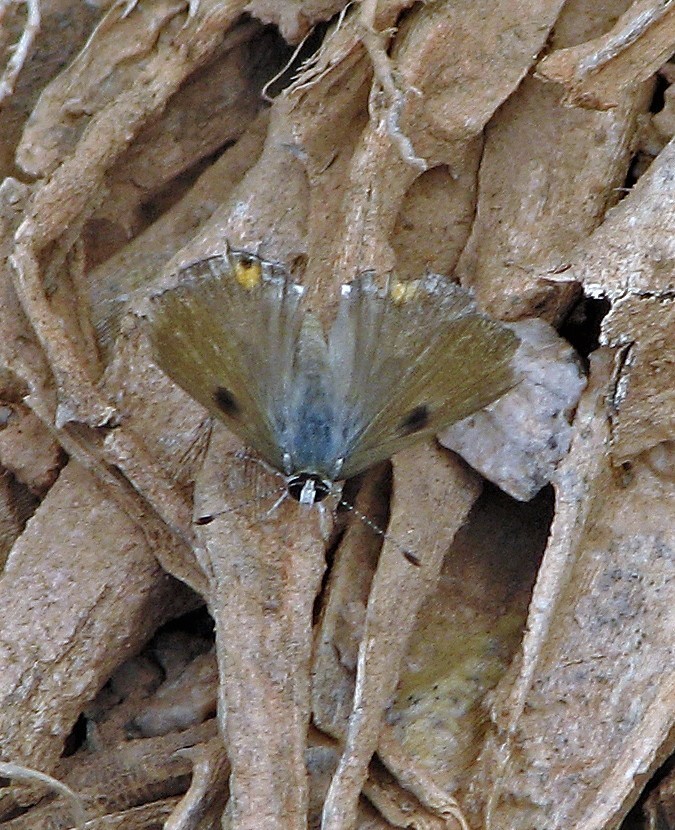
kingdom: Animalia
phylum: Arthropoda
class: Insecta
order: Lepidoptera
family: Lycaenidae
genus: Strymon
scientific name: Strymon
